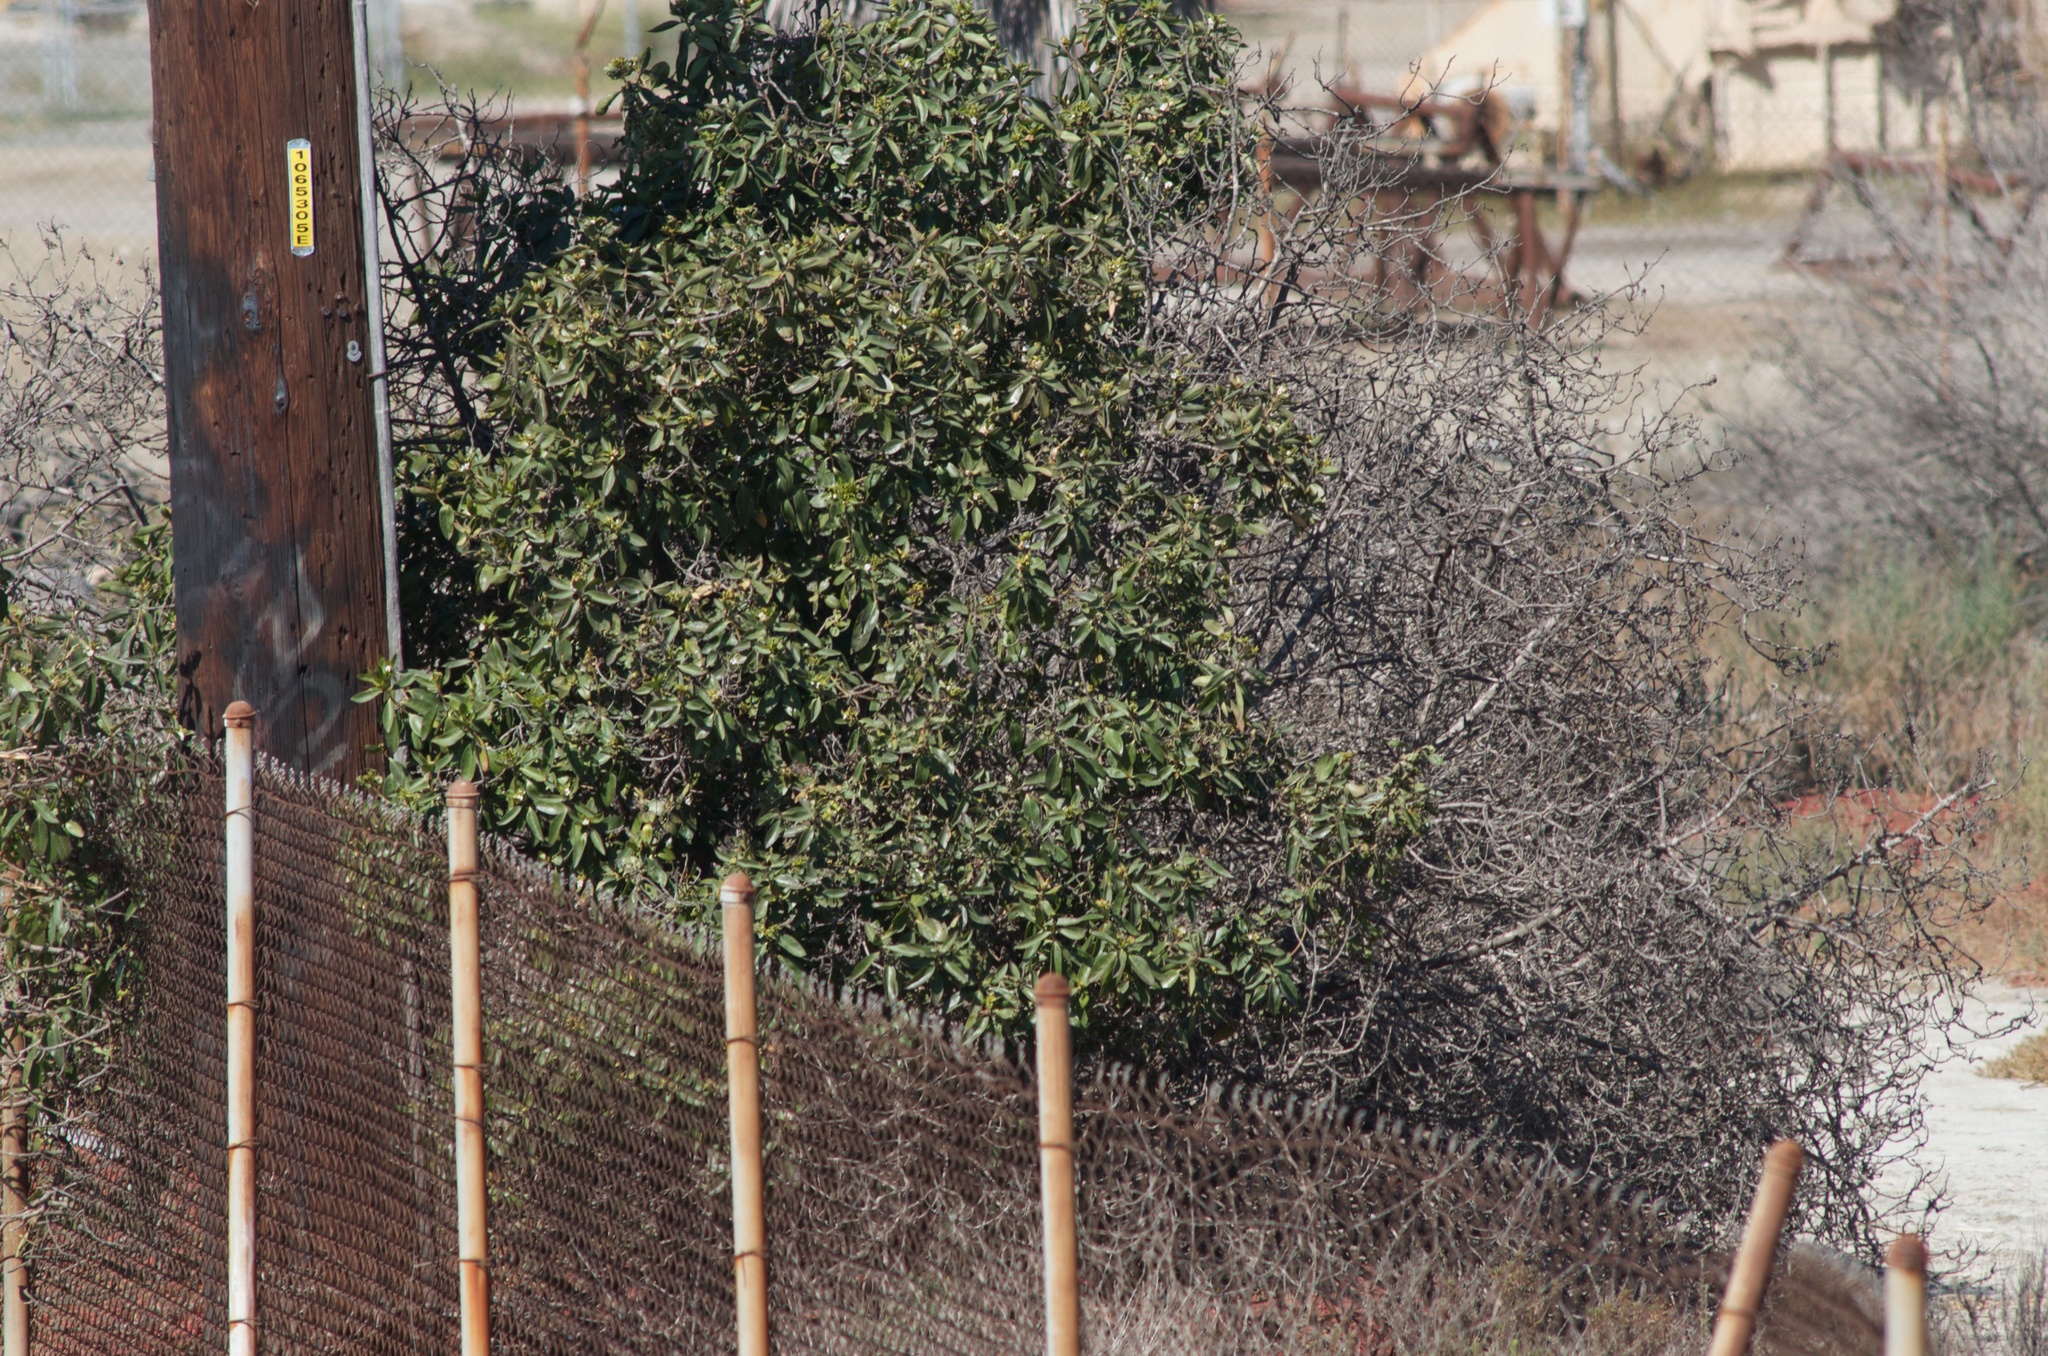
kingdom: Plantae
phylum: Tracheophyta
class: Magnoliopsida
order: Lamiales
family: Scrophulariaceae
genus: Myoporum
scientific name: Myoporum laetum
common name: Ngaio tree
